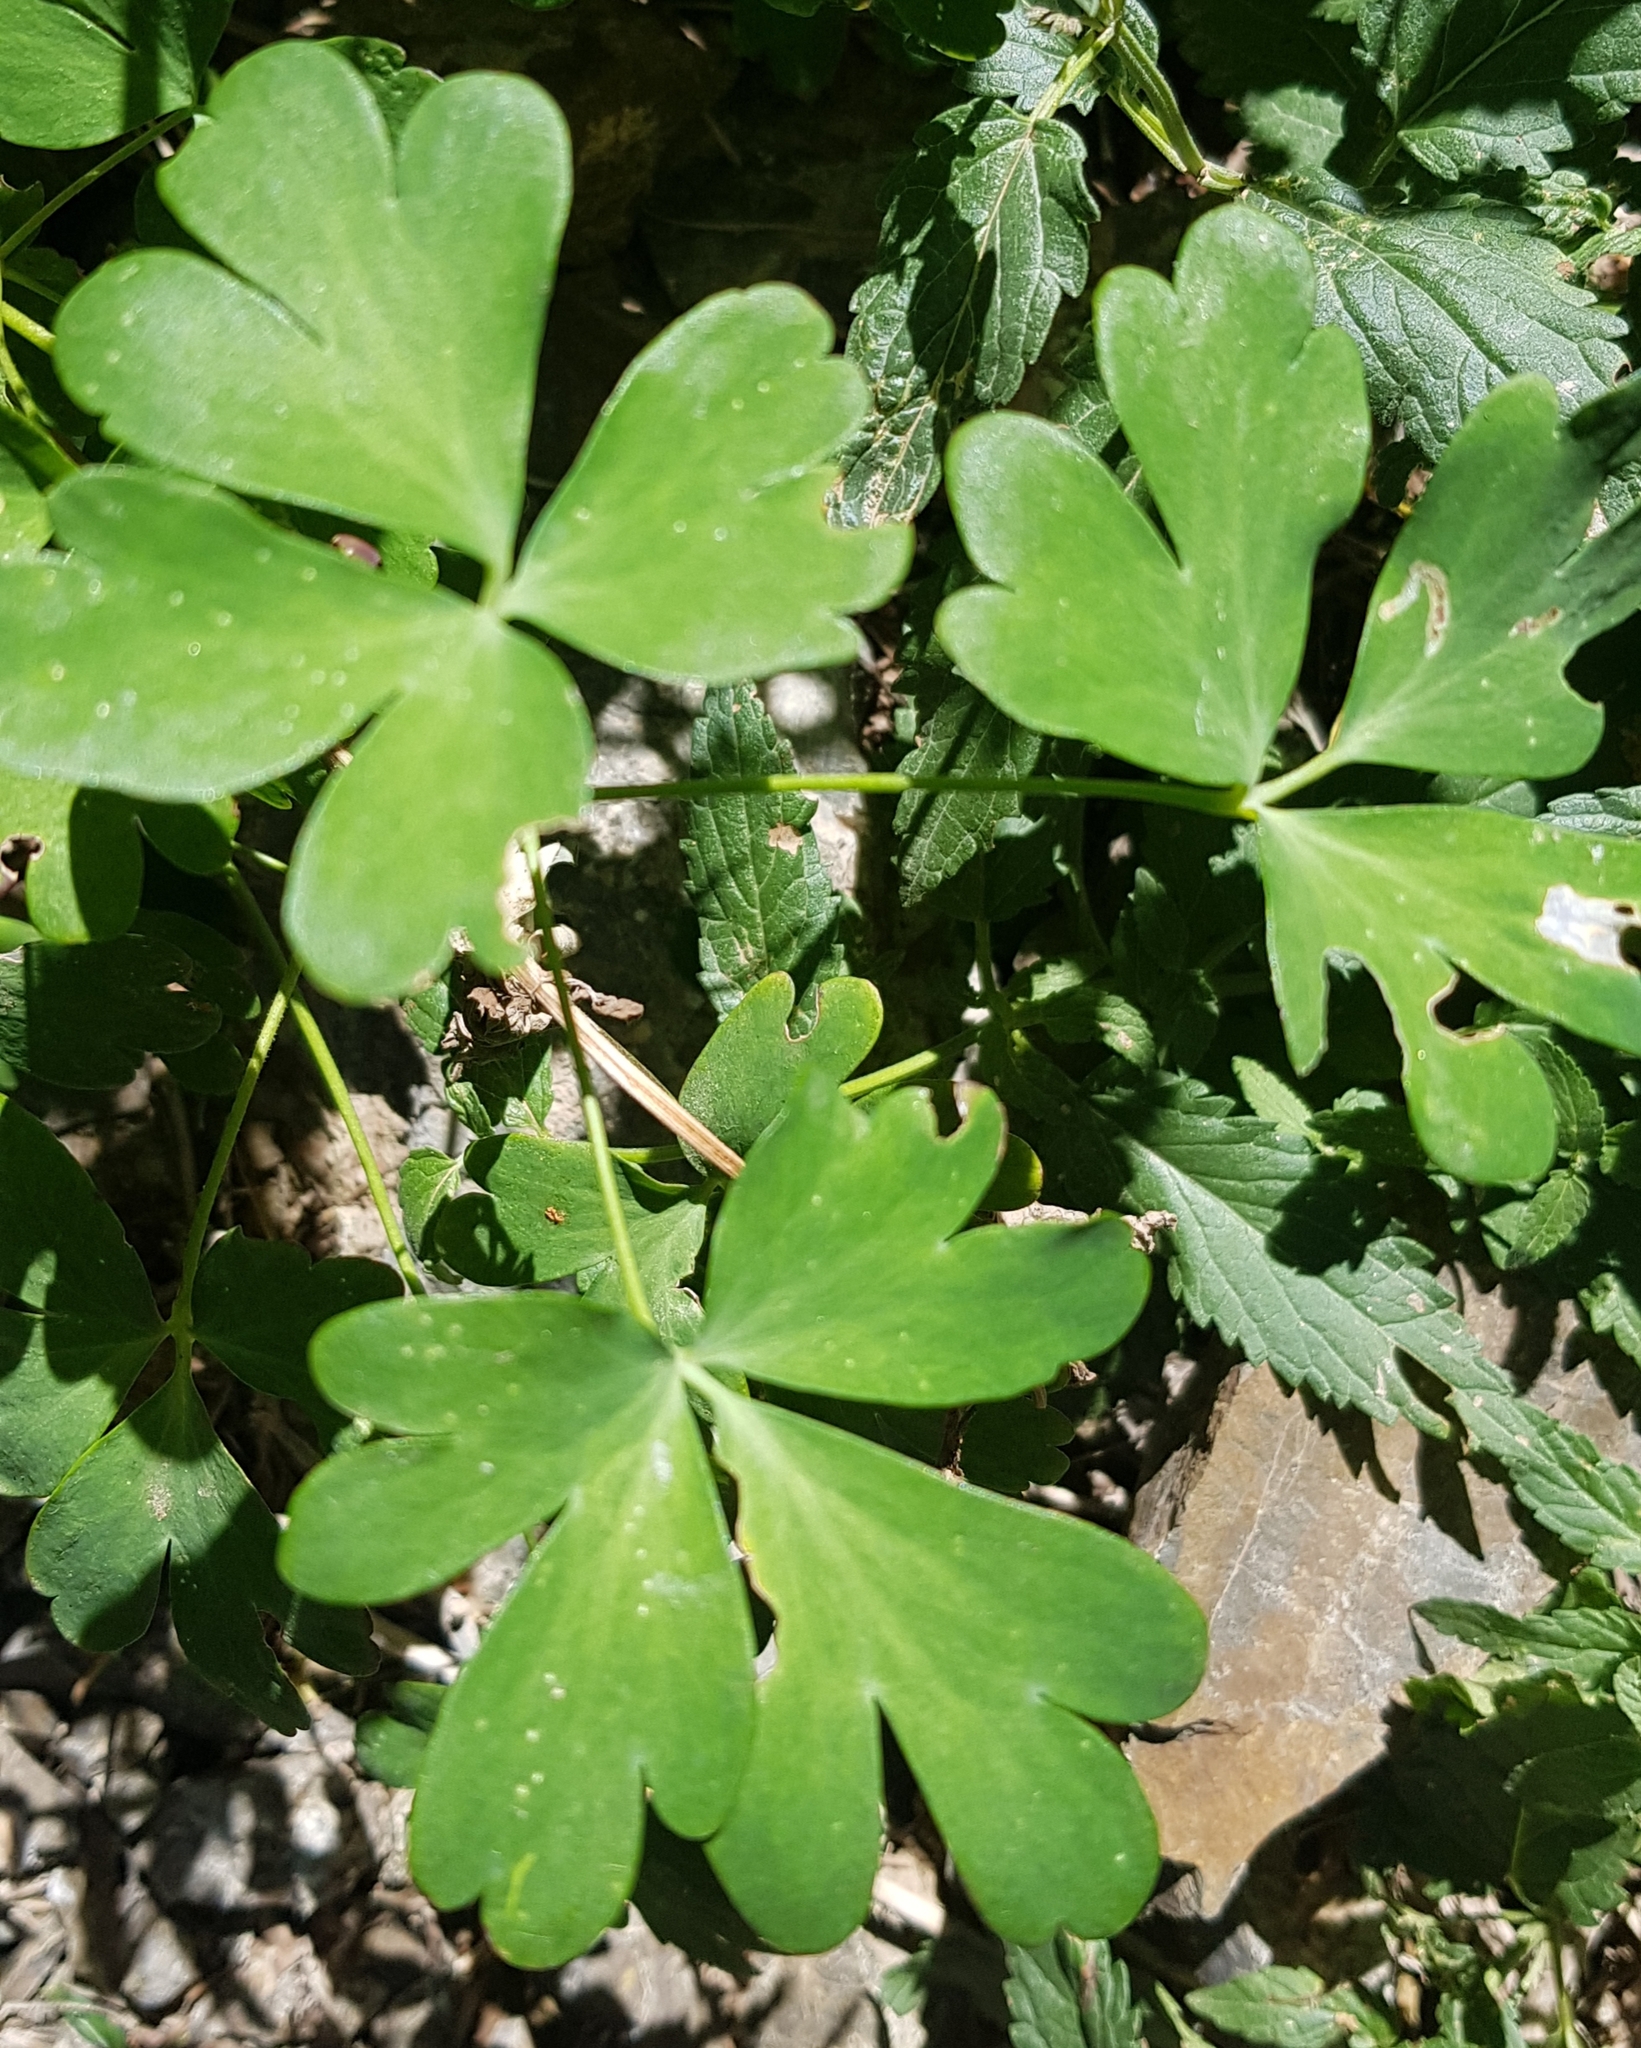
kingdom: Plantae
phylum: Tracheophyta
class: Magnoliopsida
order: Ranunculales
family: Ranunculaceae
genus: Aquilegia
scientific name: Aquilegia viridiflora
